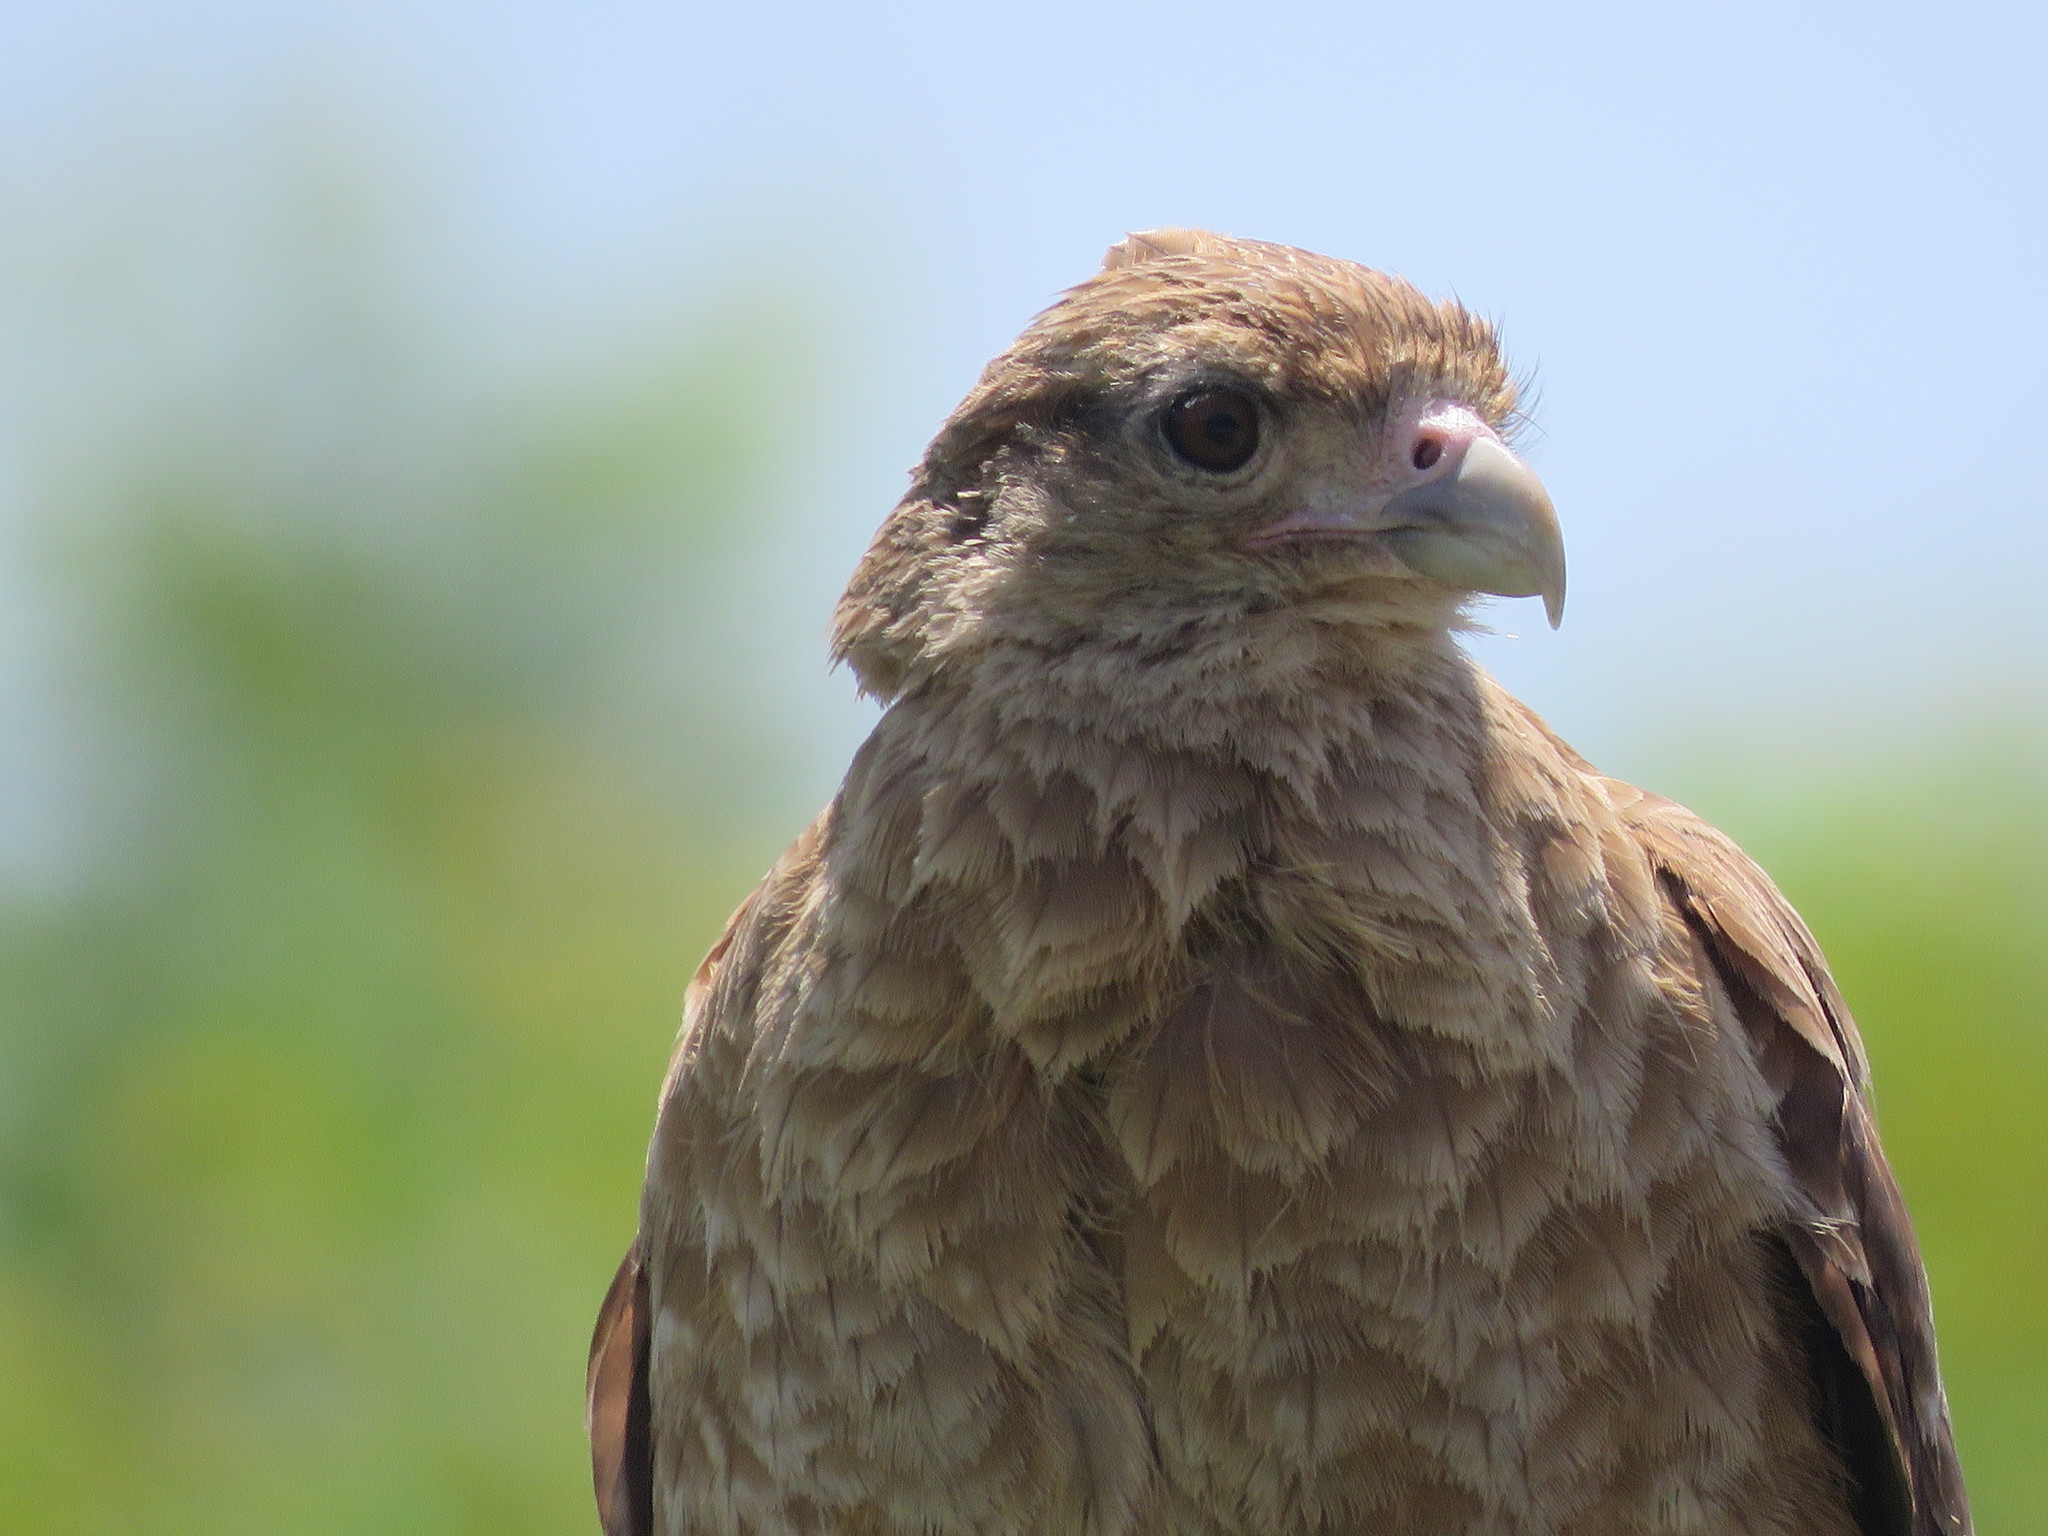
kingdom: Animalia
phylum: Chordata
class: Aves
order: Falconiformes
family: Falconidae
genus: Daptrius
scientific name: Daptrius
